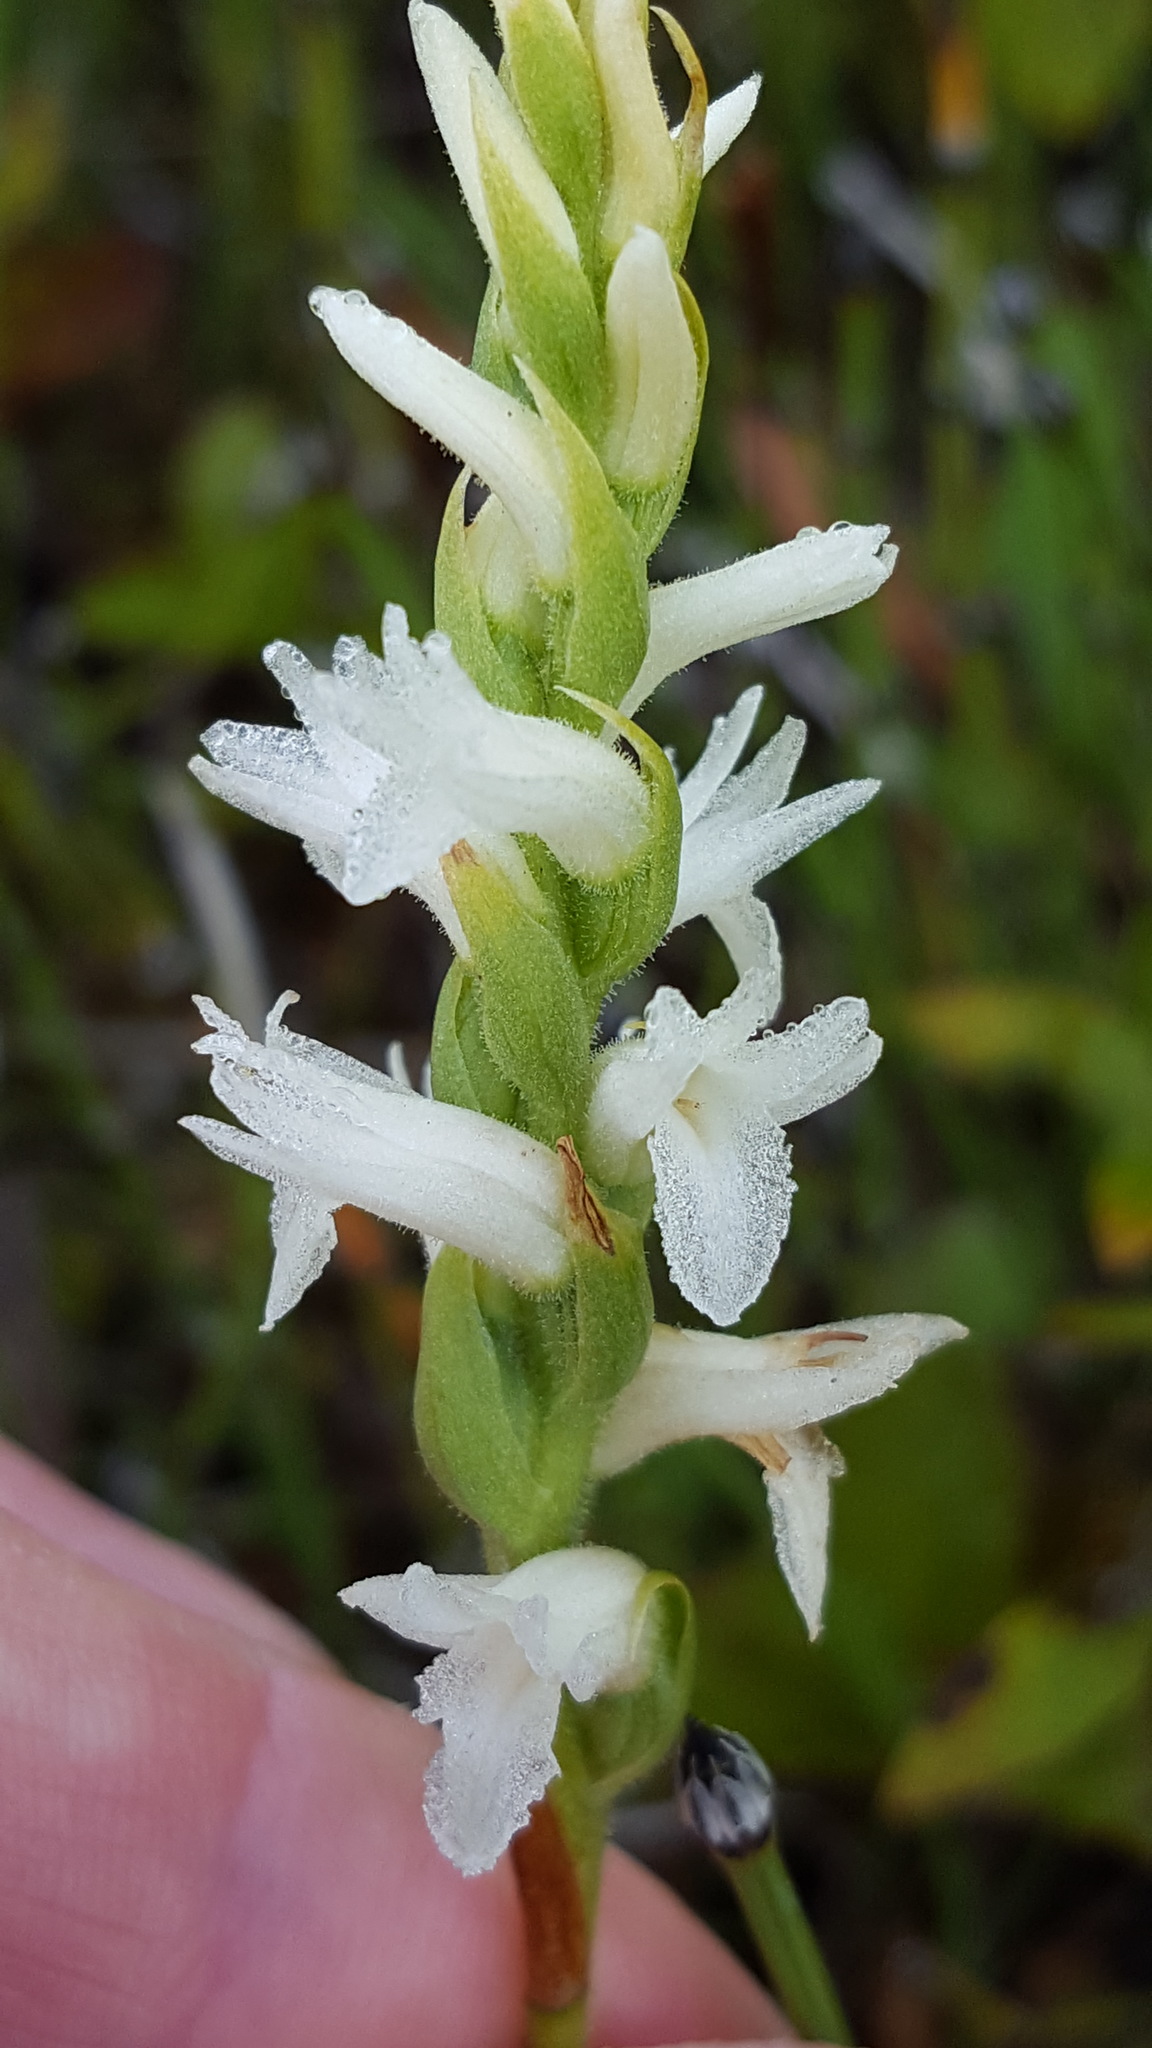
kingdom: Plantae
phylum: Tracheophyta
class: Liliopsida
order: Asparagales
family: Orchidaceae
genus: Spiranthes
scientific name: Spiranthes incurva
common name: Sphinx ladies'-tresses
